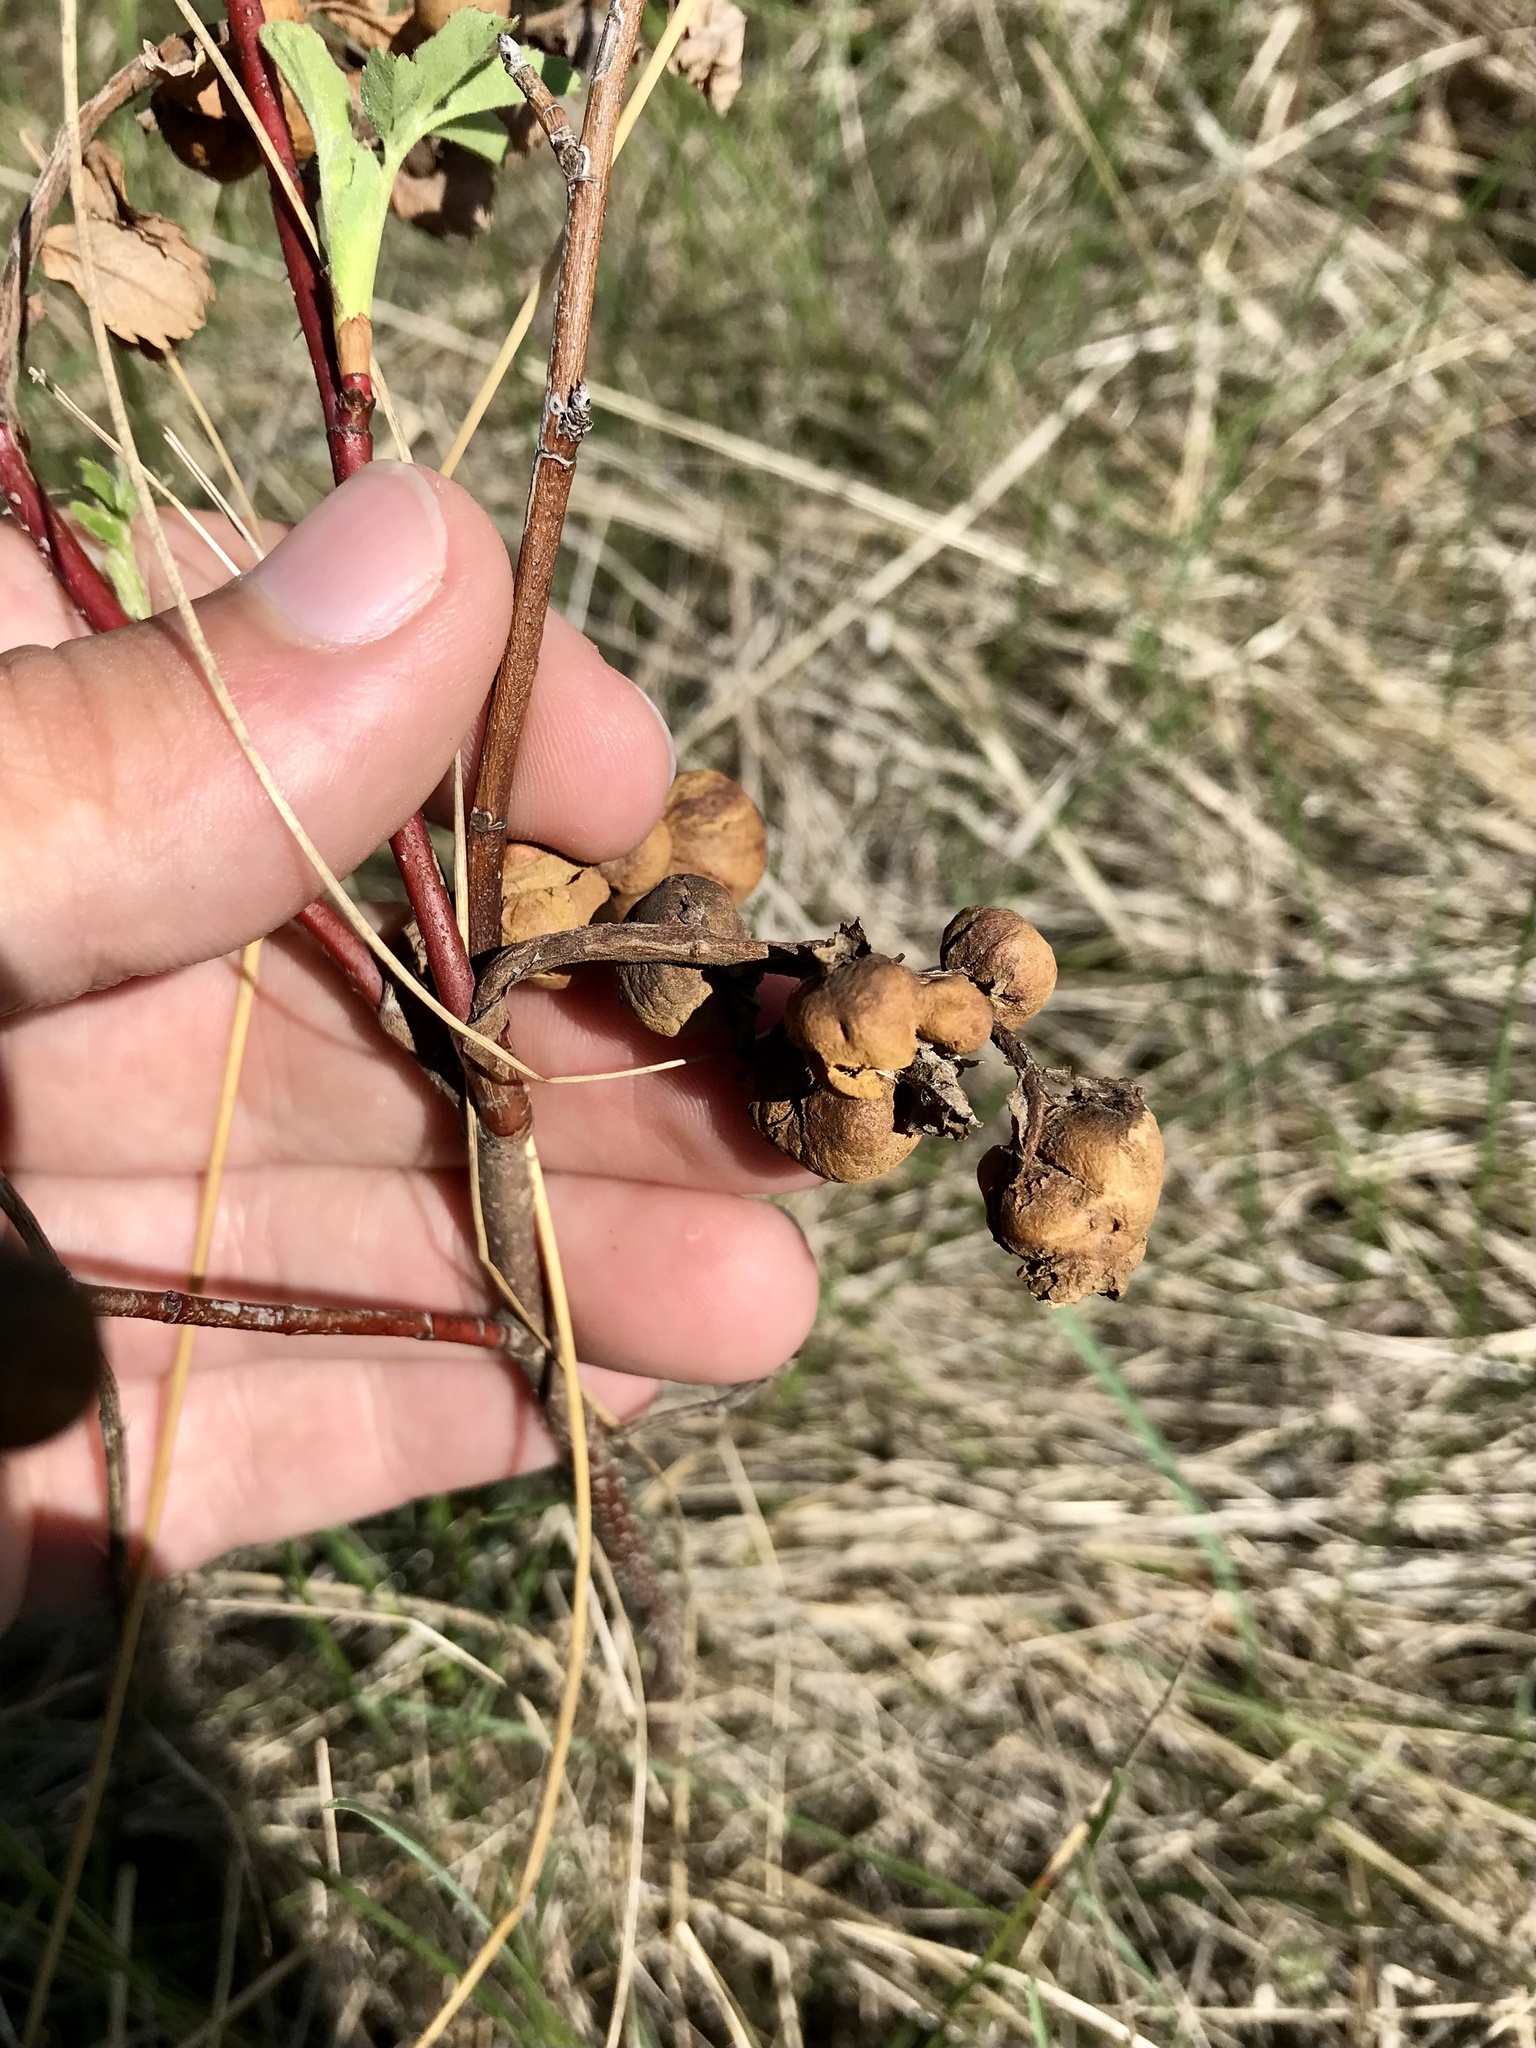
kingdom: Animalia
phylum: Arthropoda
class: Insecta
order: Hymenoptera
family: Cynipidae
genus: Diplolepis
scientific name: Diplolepis ignota
